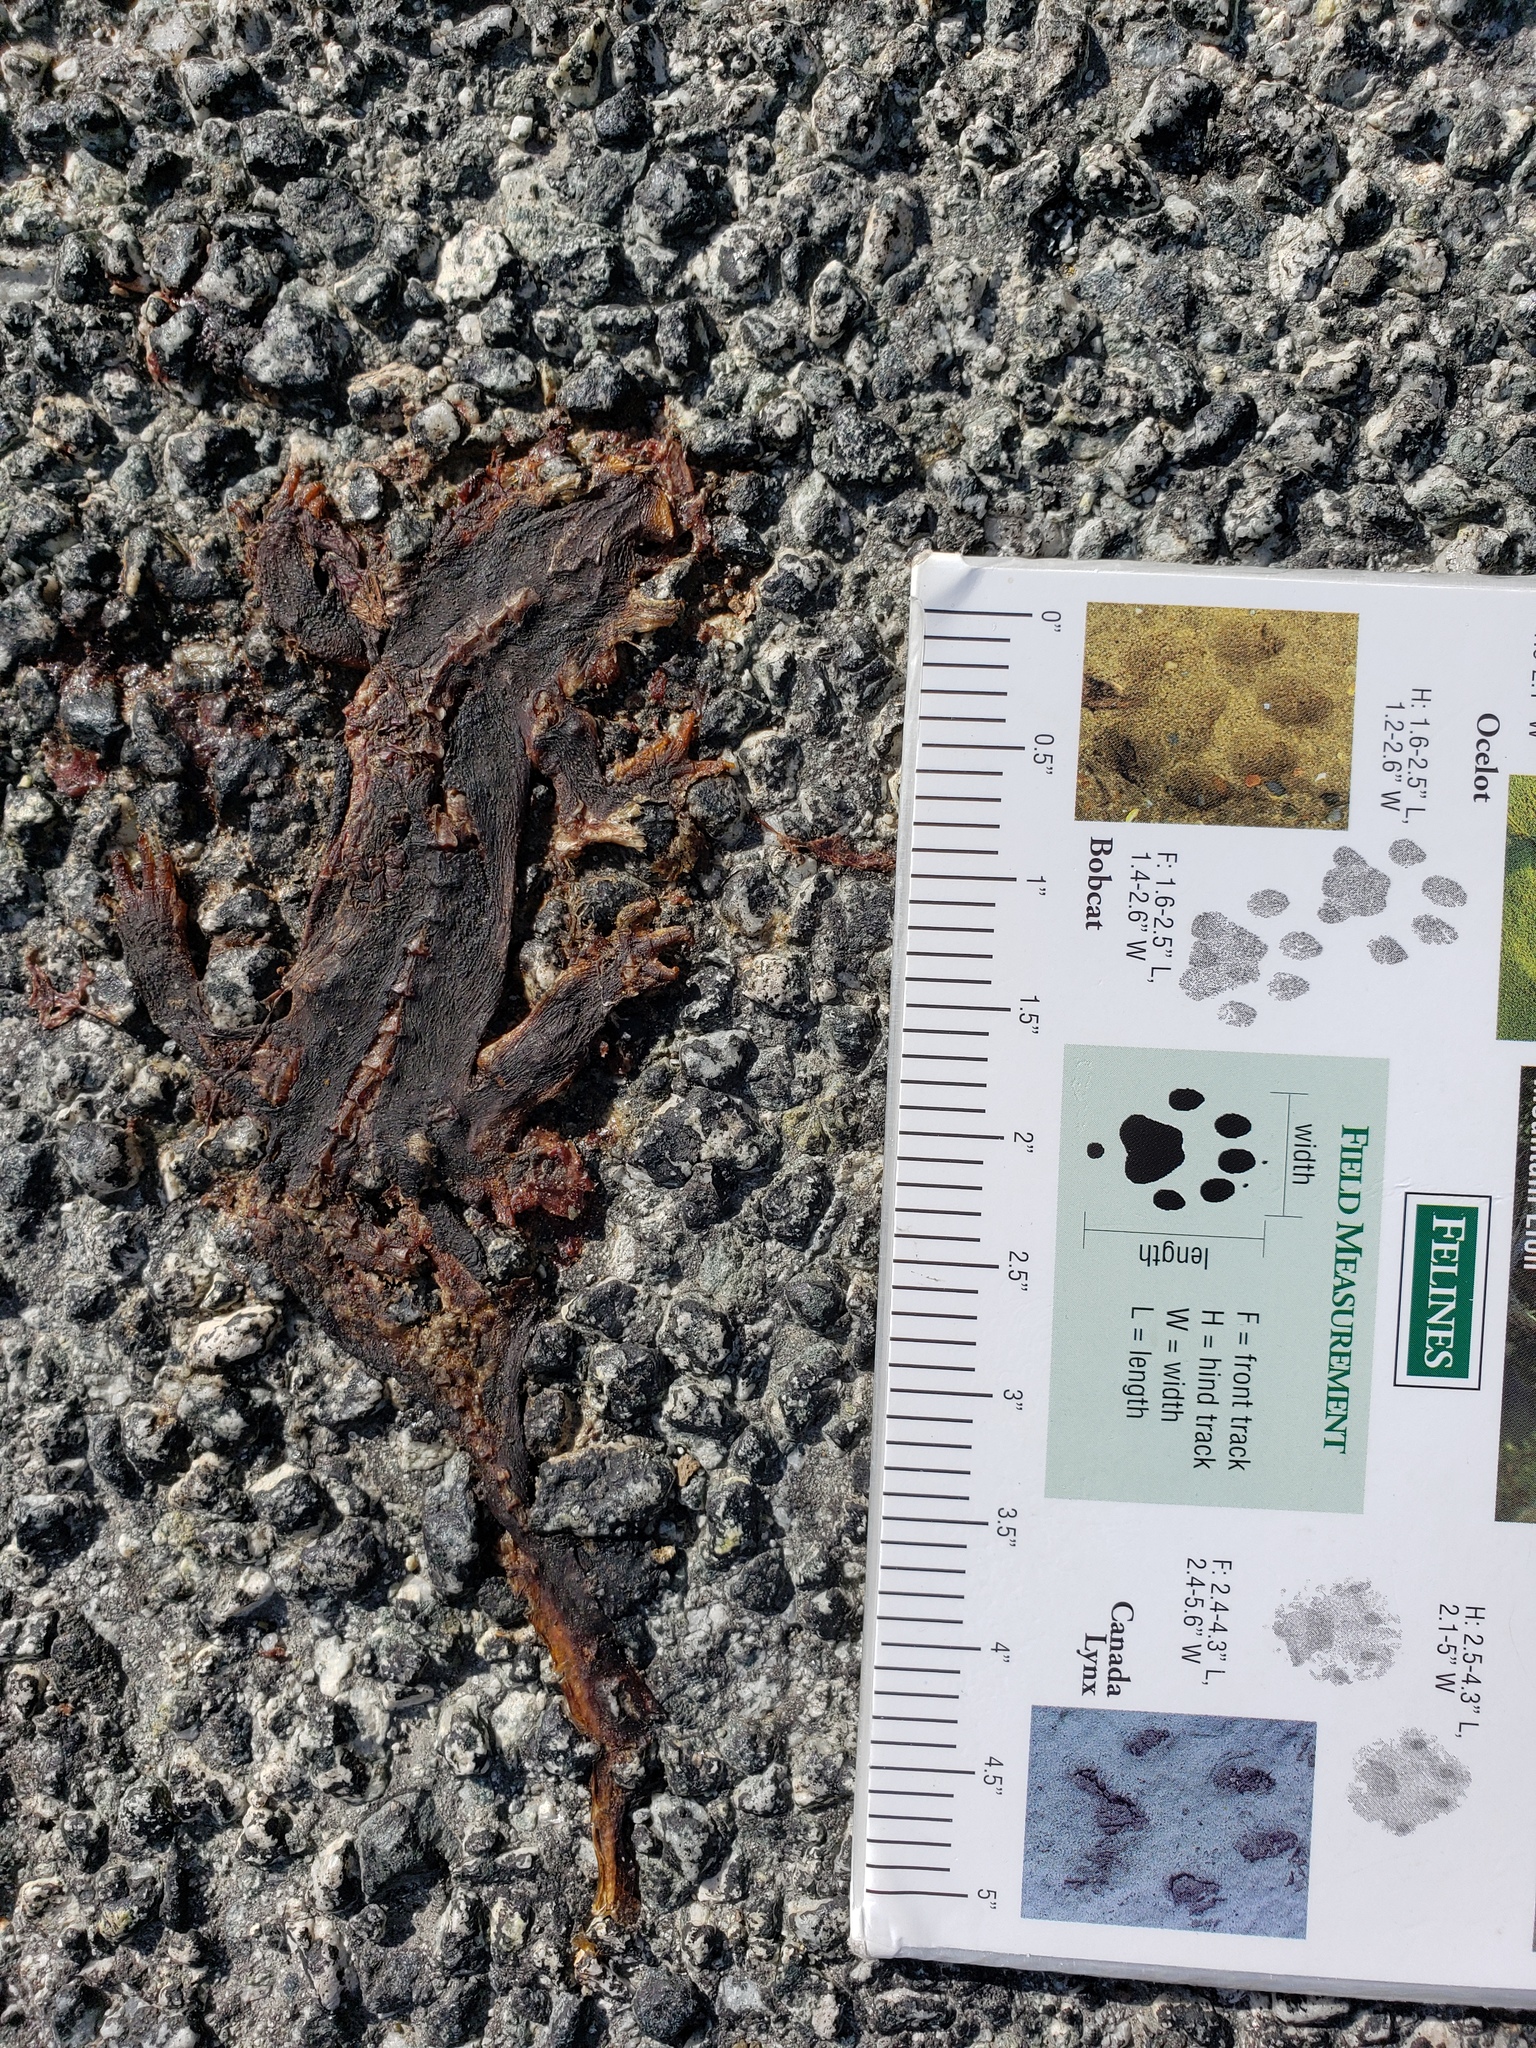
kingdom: Animalia
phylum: Chordata
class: Amphibia
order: Caudata
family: Salamandridae
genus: Taricha
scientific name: Taricha
